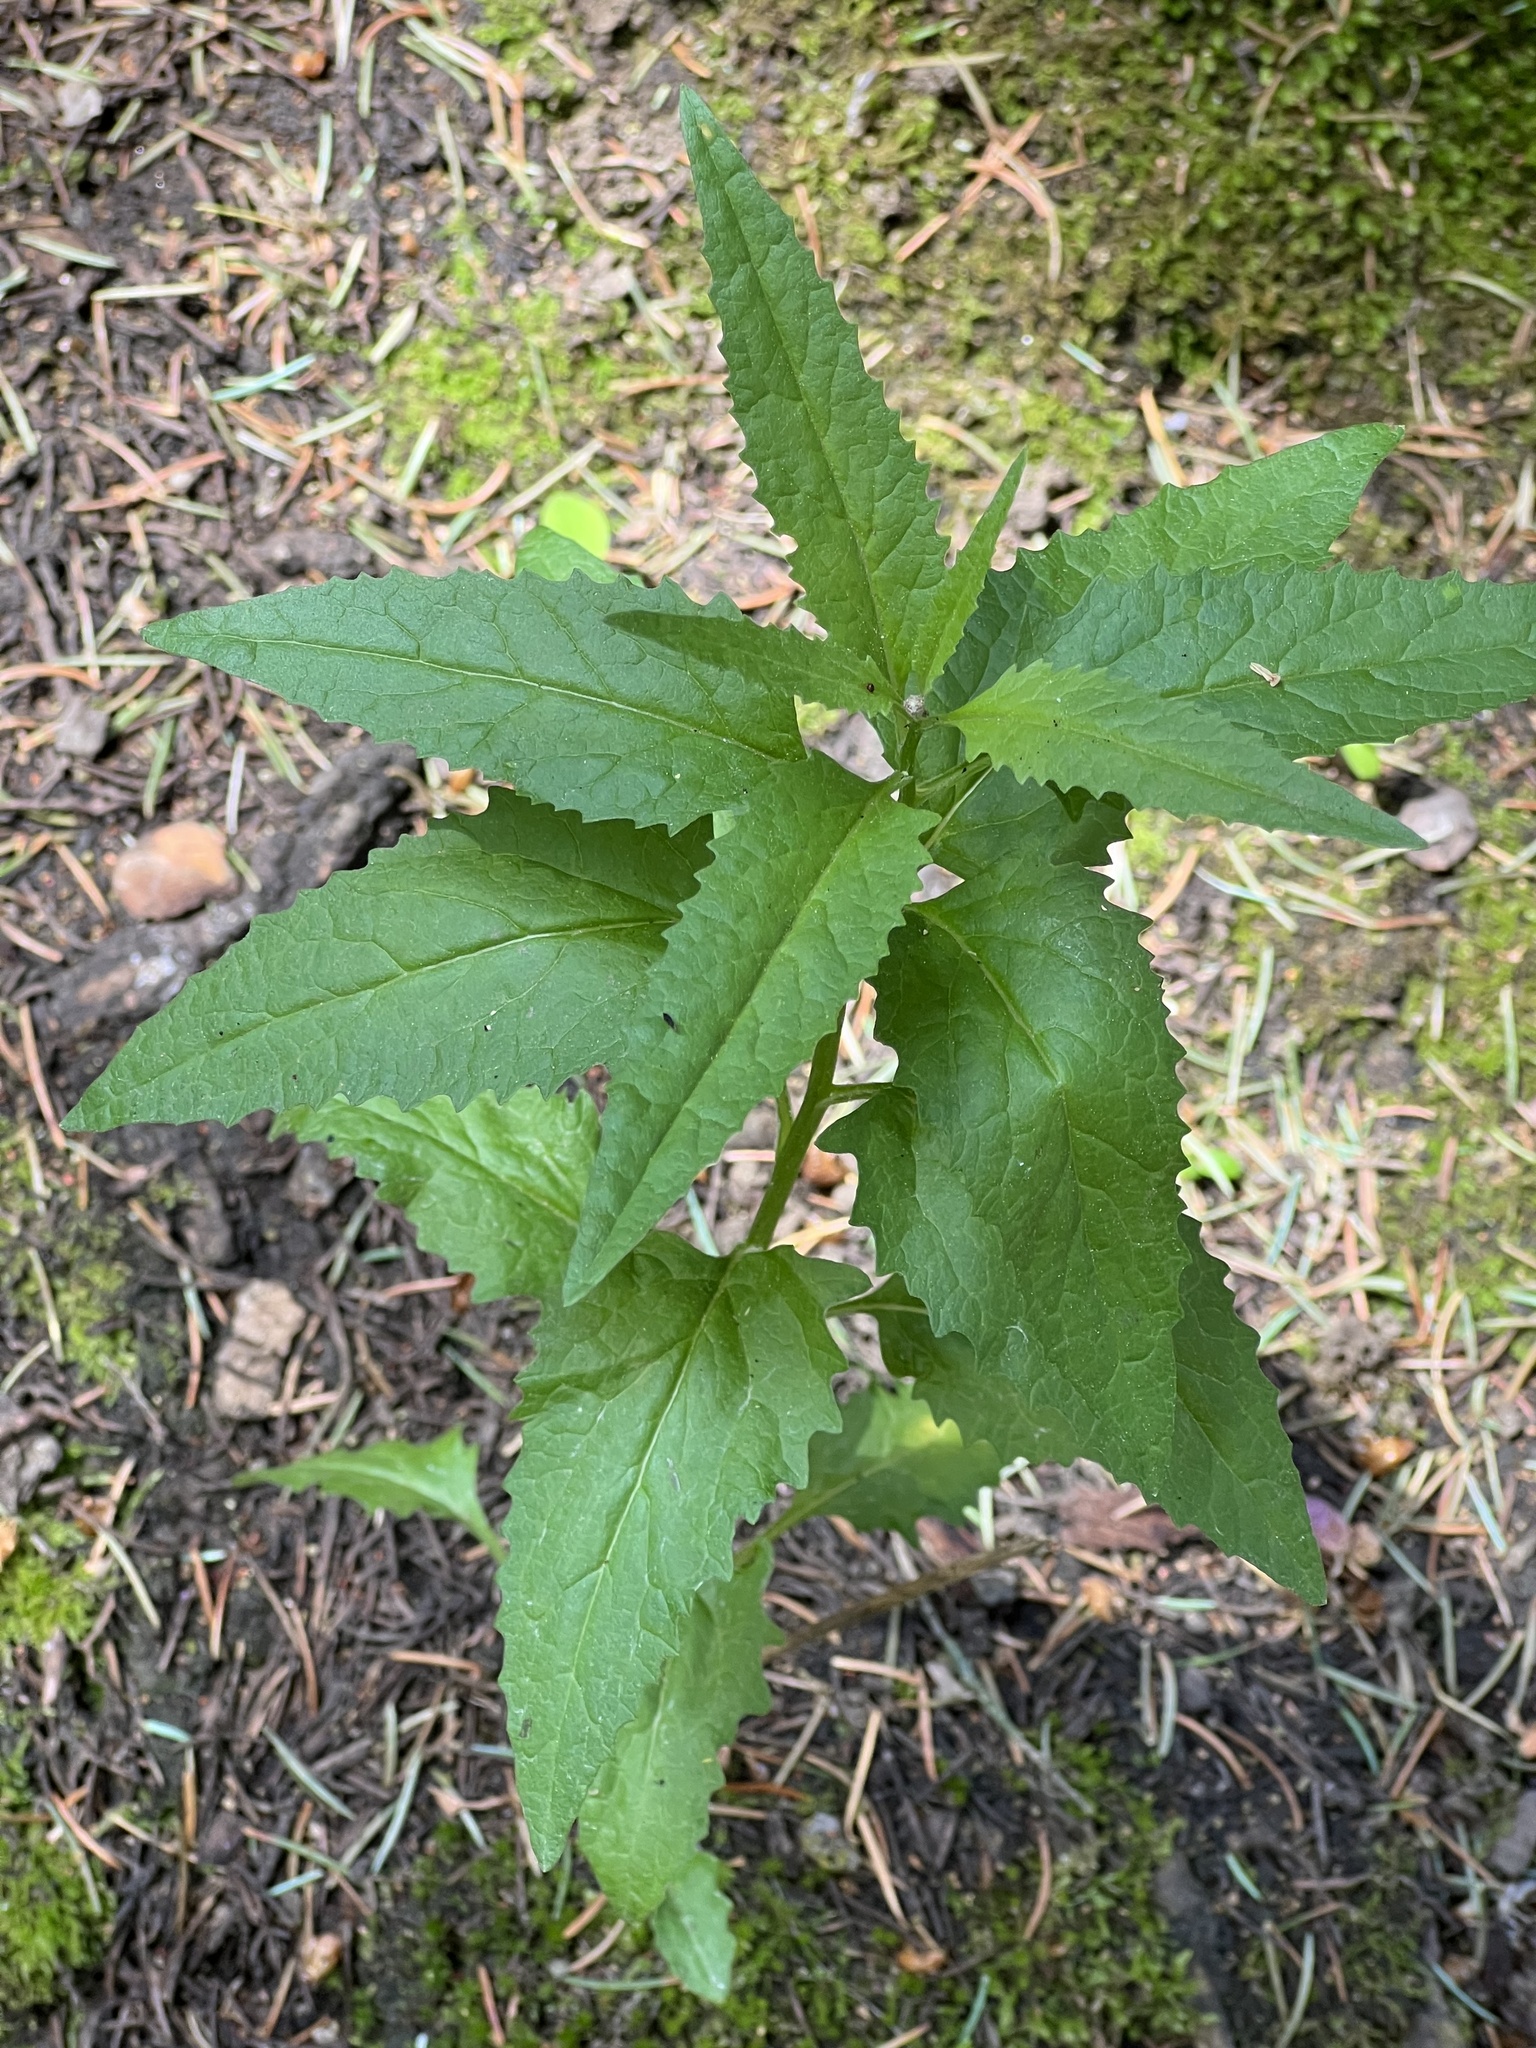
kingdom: Plantae
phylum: Tracheophyta
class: Magnoliopsida
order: Asterales
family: Asteraceae
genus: Senecio
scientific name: Senecio triangularis
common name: Arrowleaf butterweed
